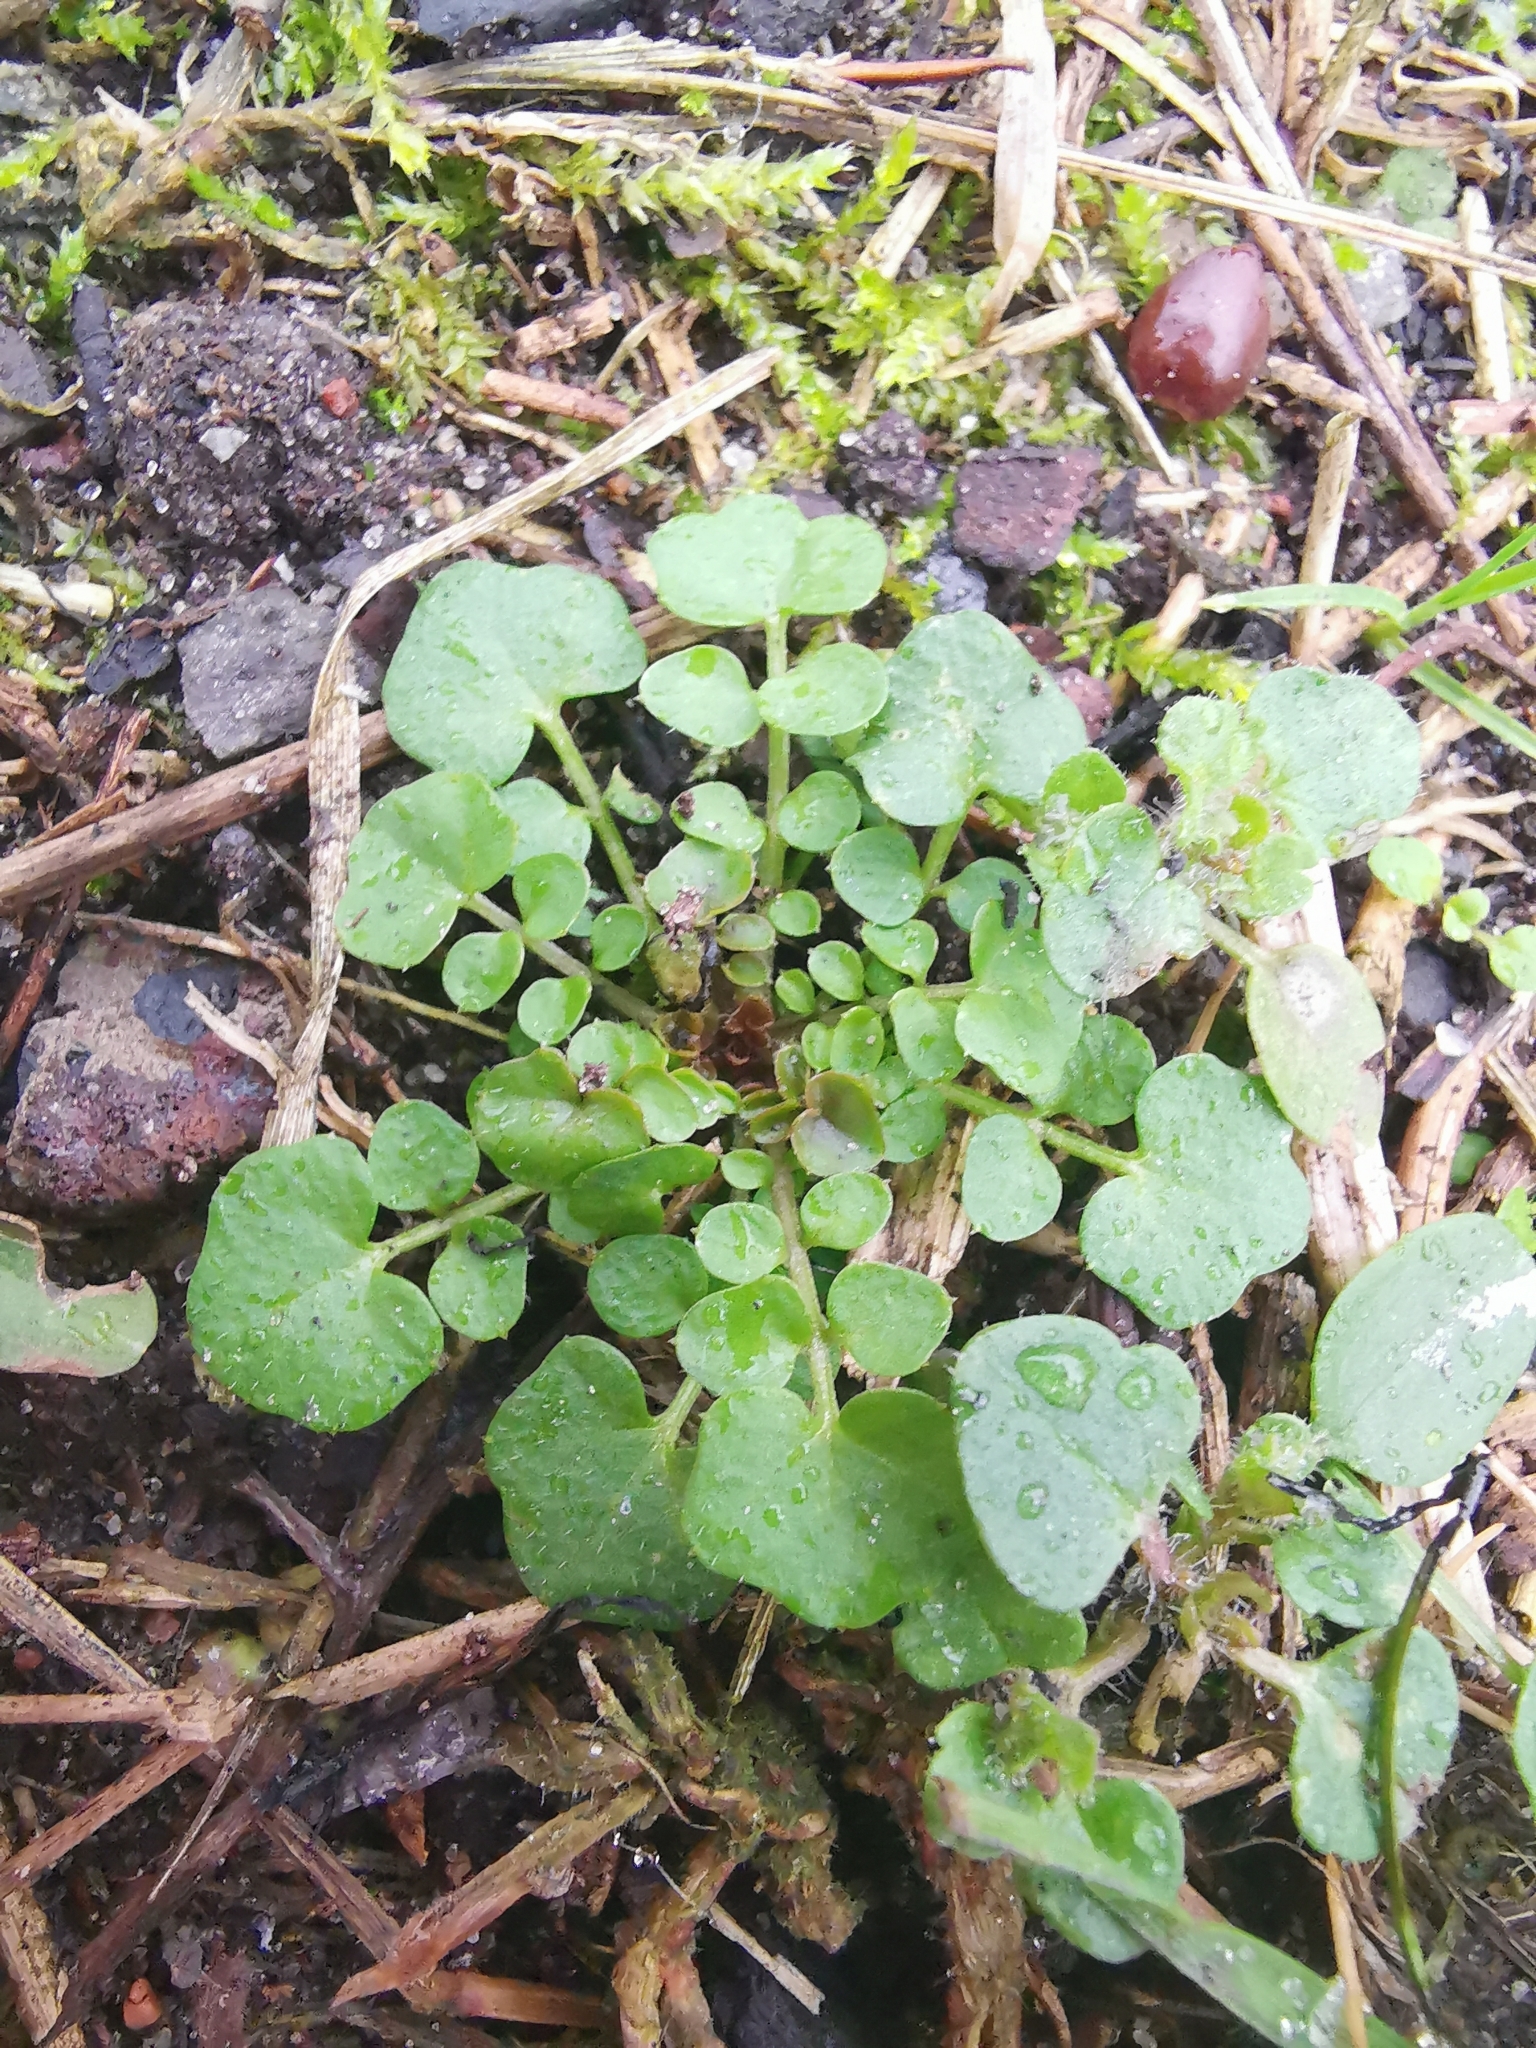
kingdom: Plantae
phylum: Tracheophyta
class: Magnoliopsida
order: Brassicales
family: Brassicaceae
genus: Cardamine
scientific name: Cardamine hirsuta
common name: Hairy bittercress
